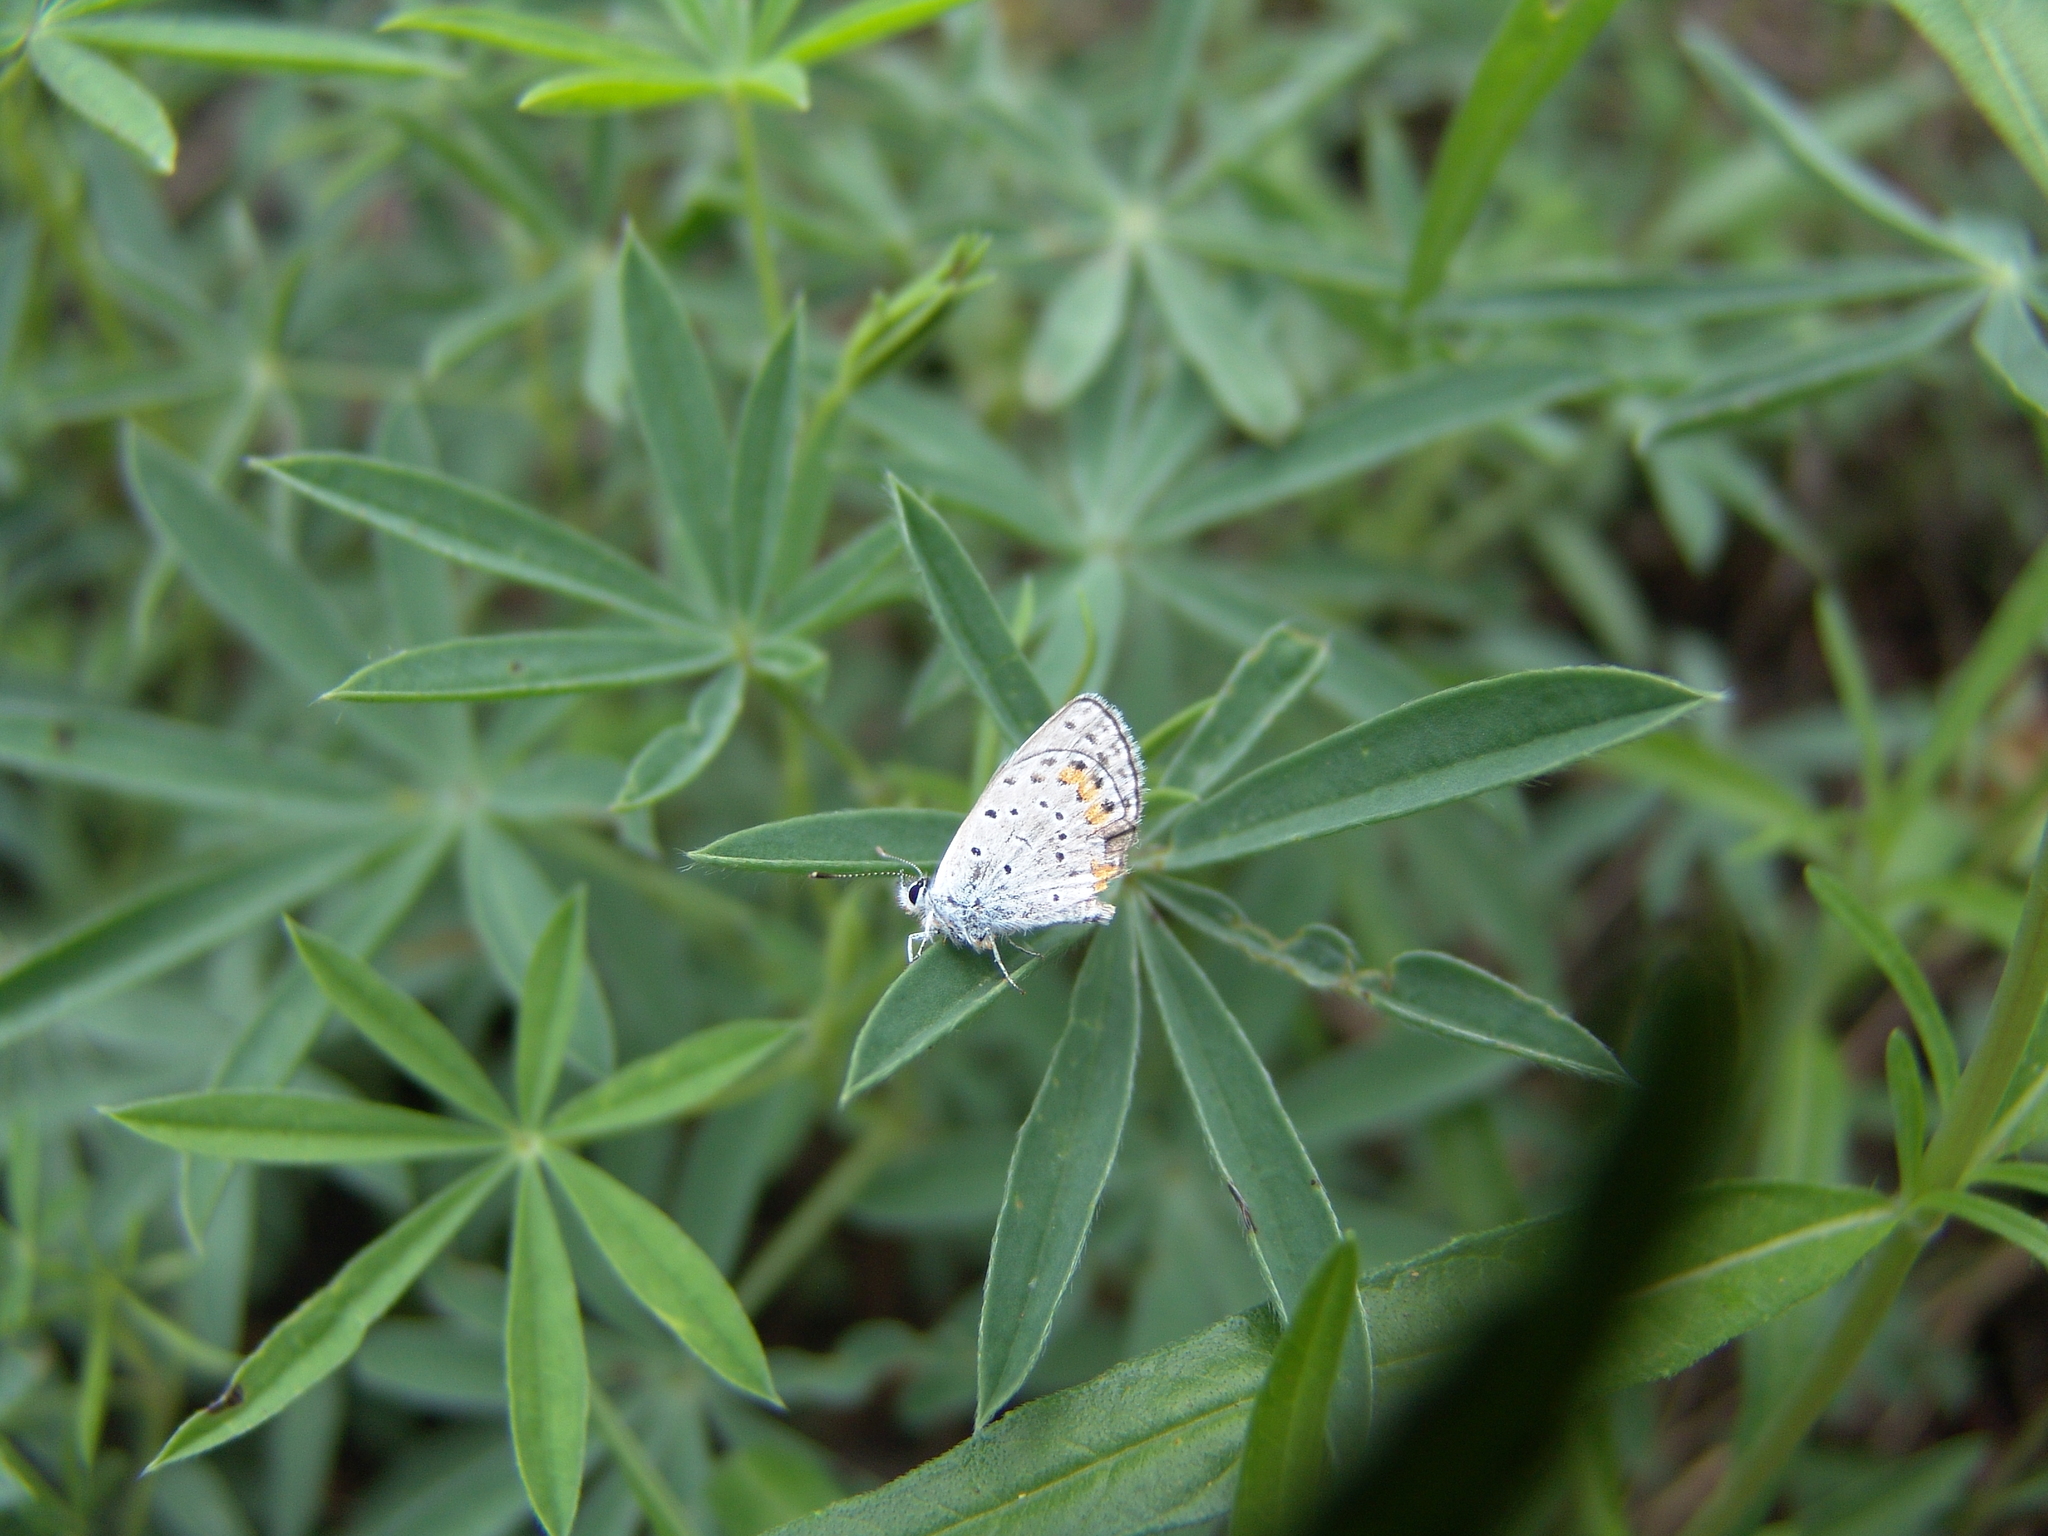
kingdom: Animalia
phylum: Arthropoda
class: Insecta
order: Lepidoptera
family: Lycaenidae
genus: Icaricia
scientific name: Icaricia lupini
